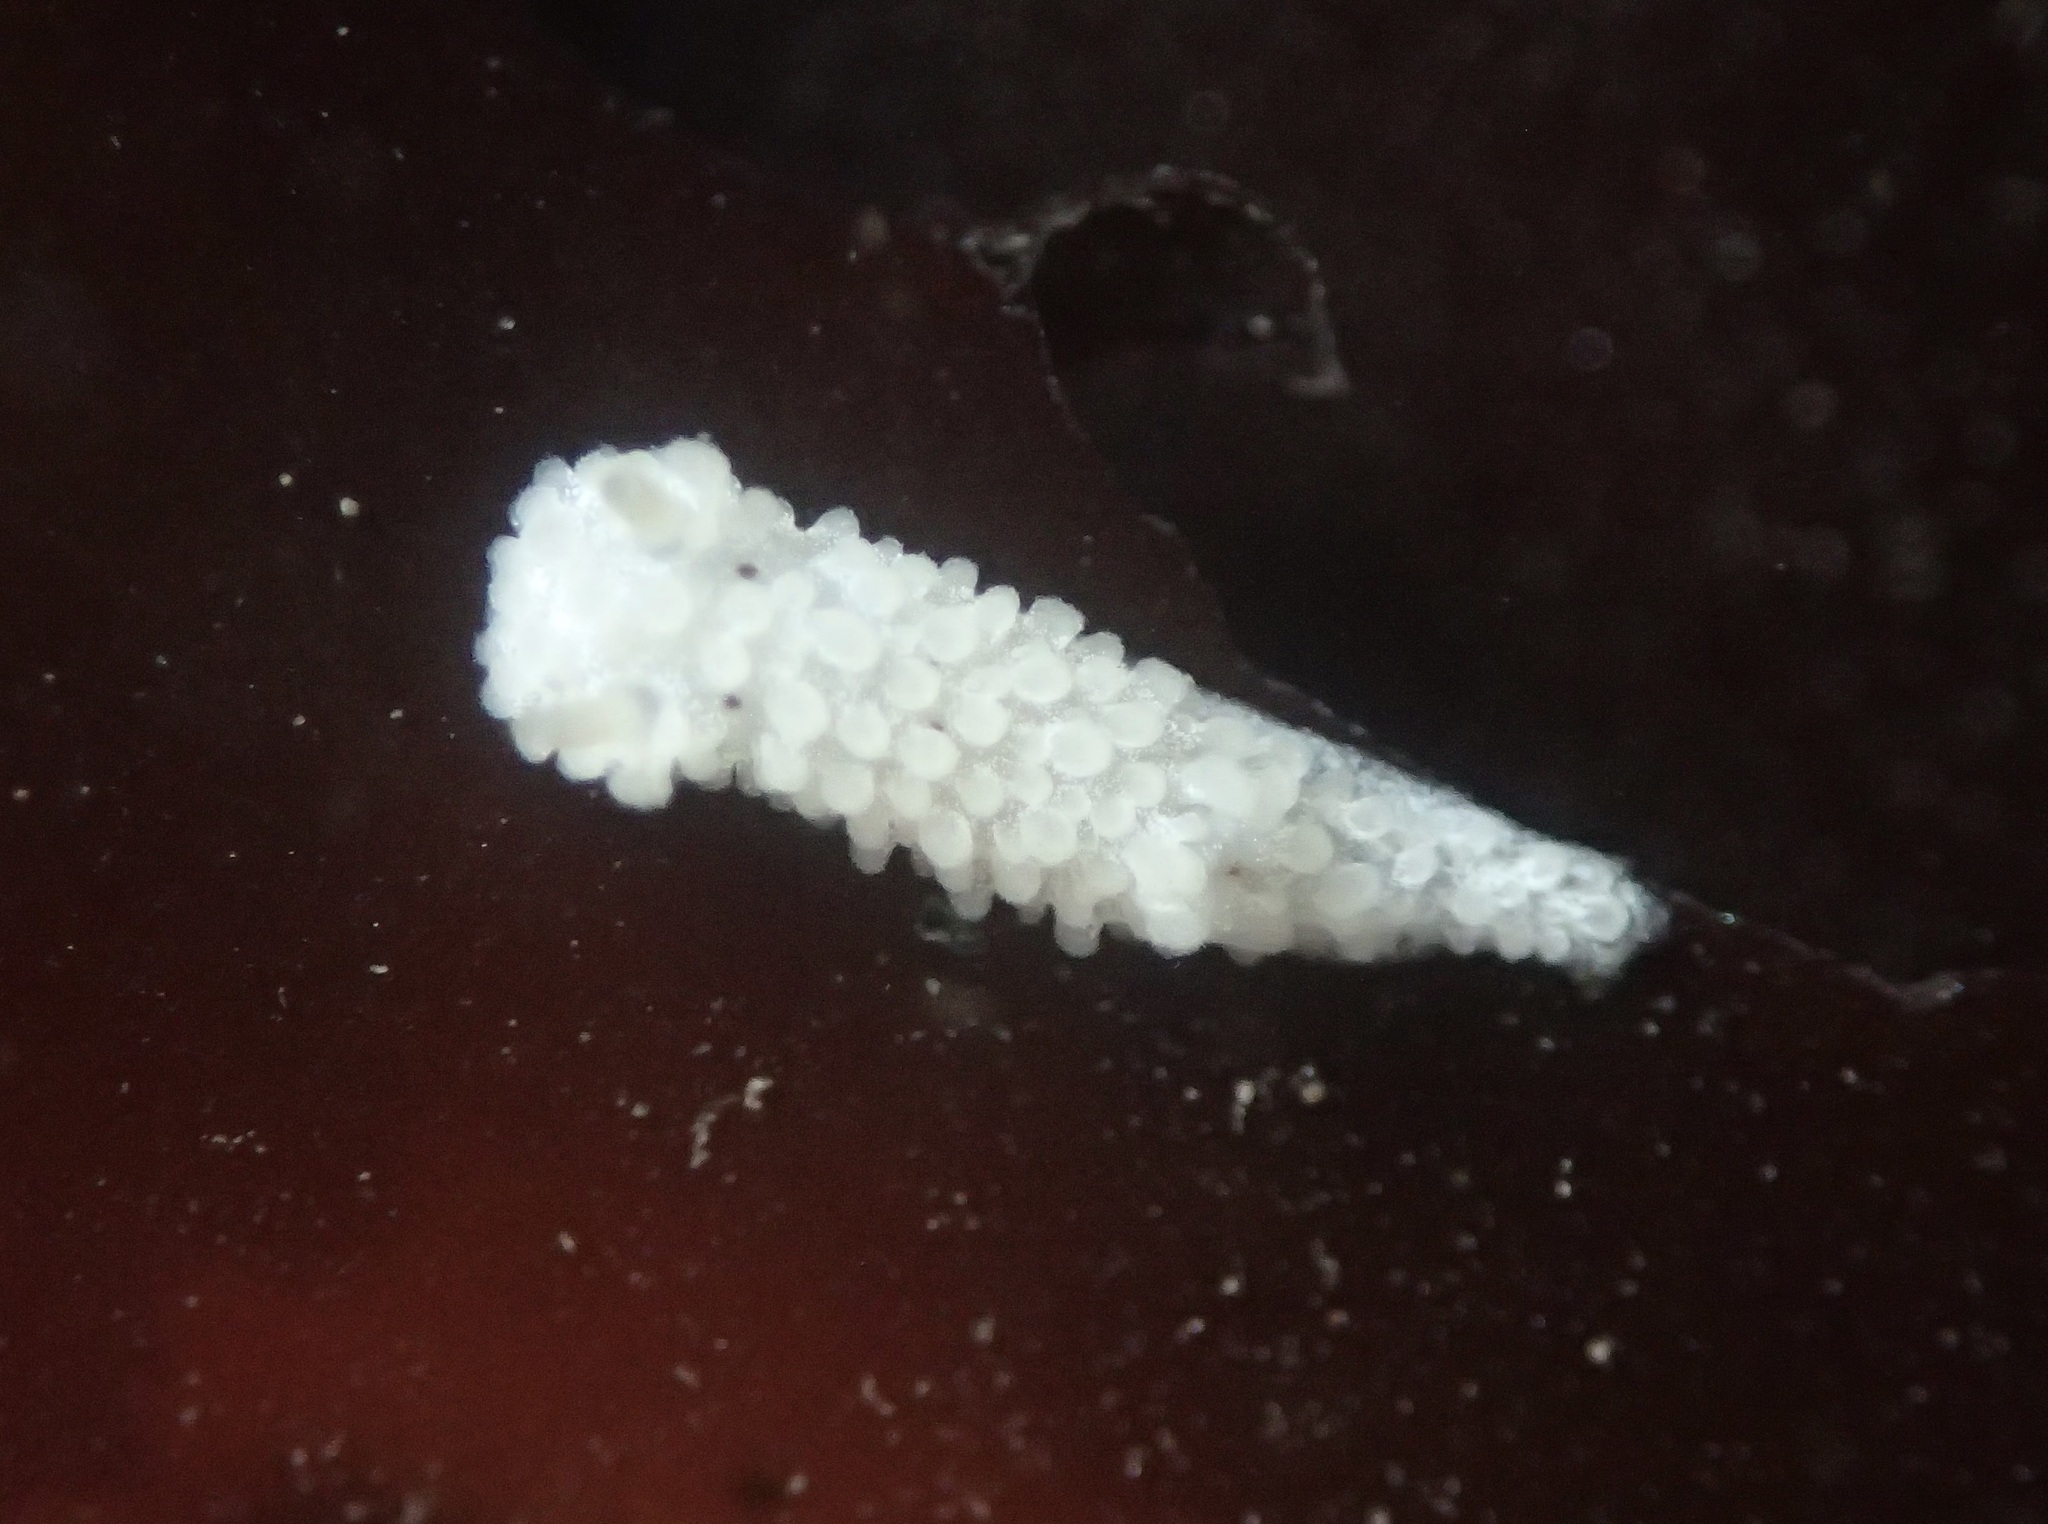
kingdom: Animalia
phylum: Mollusca
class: Gastropoda
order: Nudibranchia
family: Aegiridae
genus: Aegires
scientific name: Aegires albopunctatus
